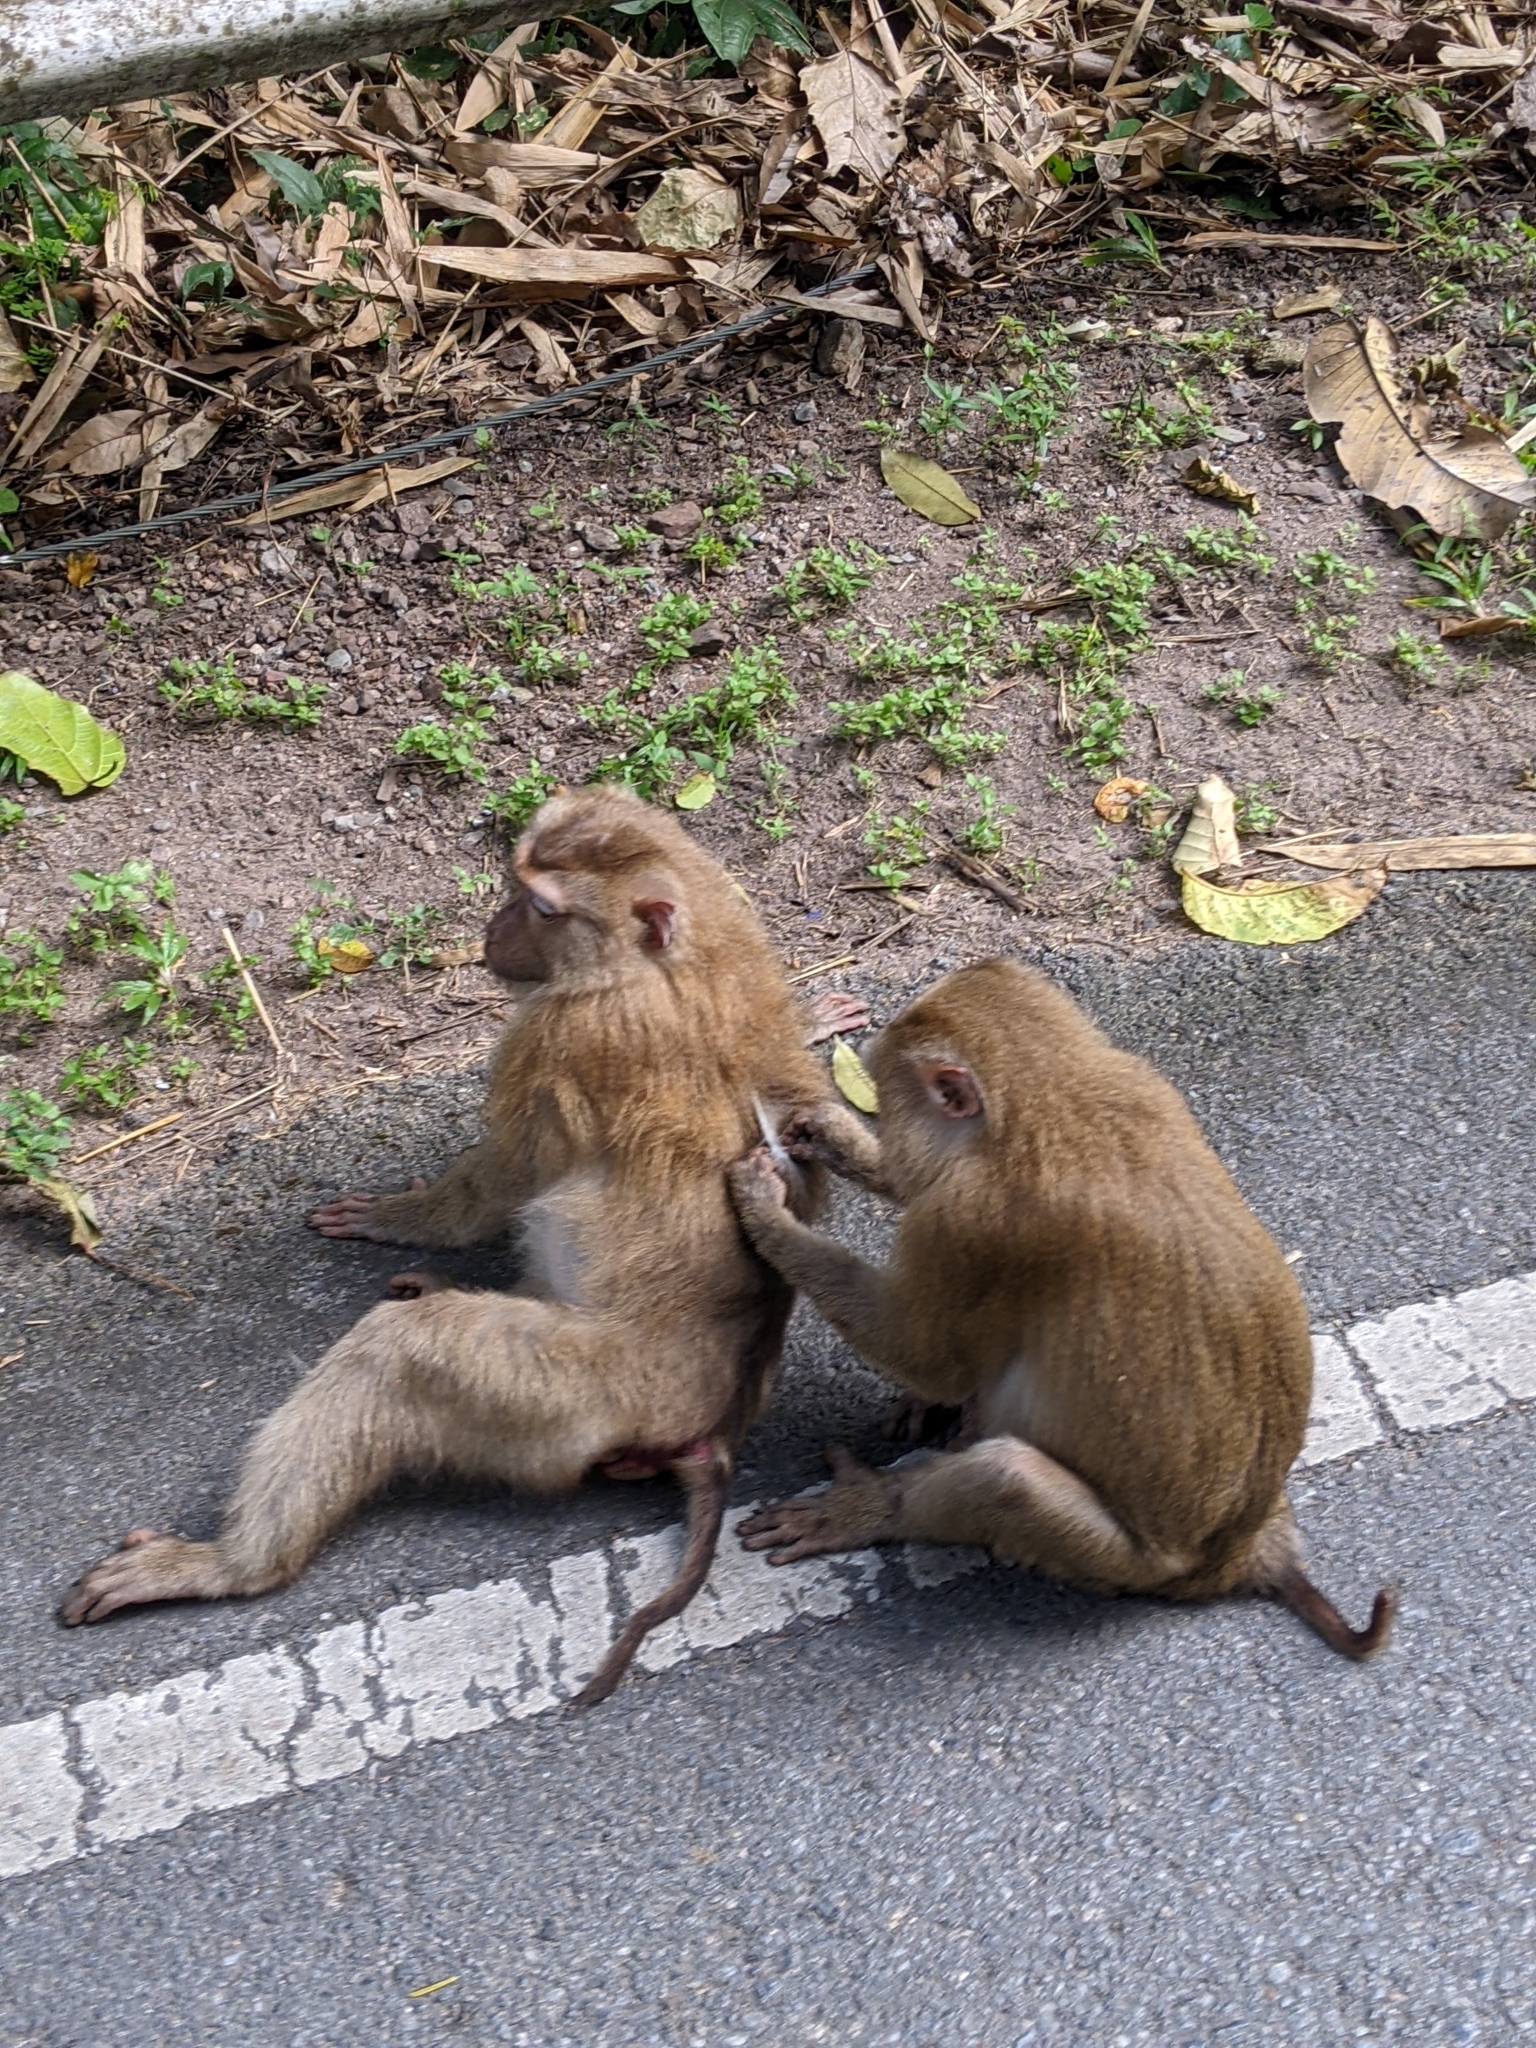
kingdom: Animalia
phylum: Chordata
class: Mammalia
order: Primates
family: Cercopithecidae
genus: Macaca
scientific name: Macaca leonina
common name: Northern pig-tailed macaque
